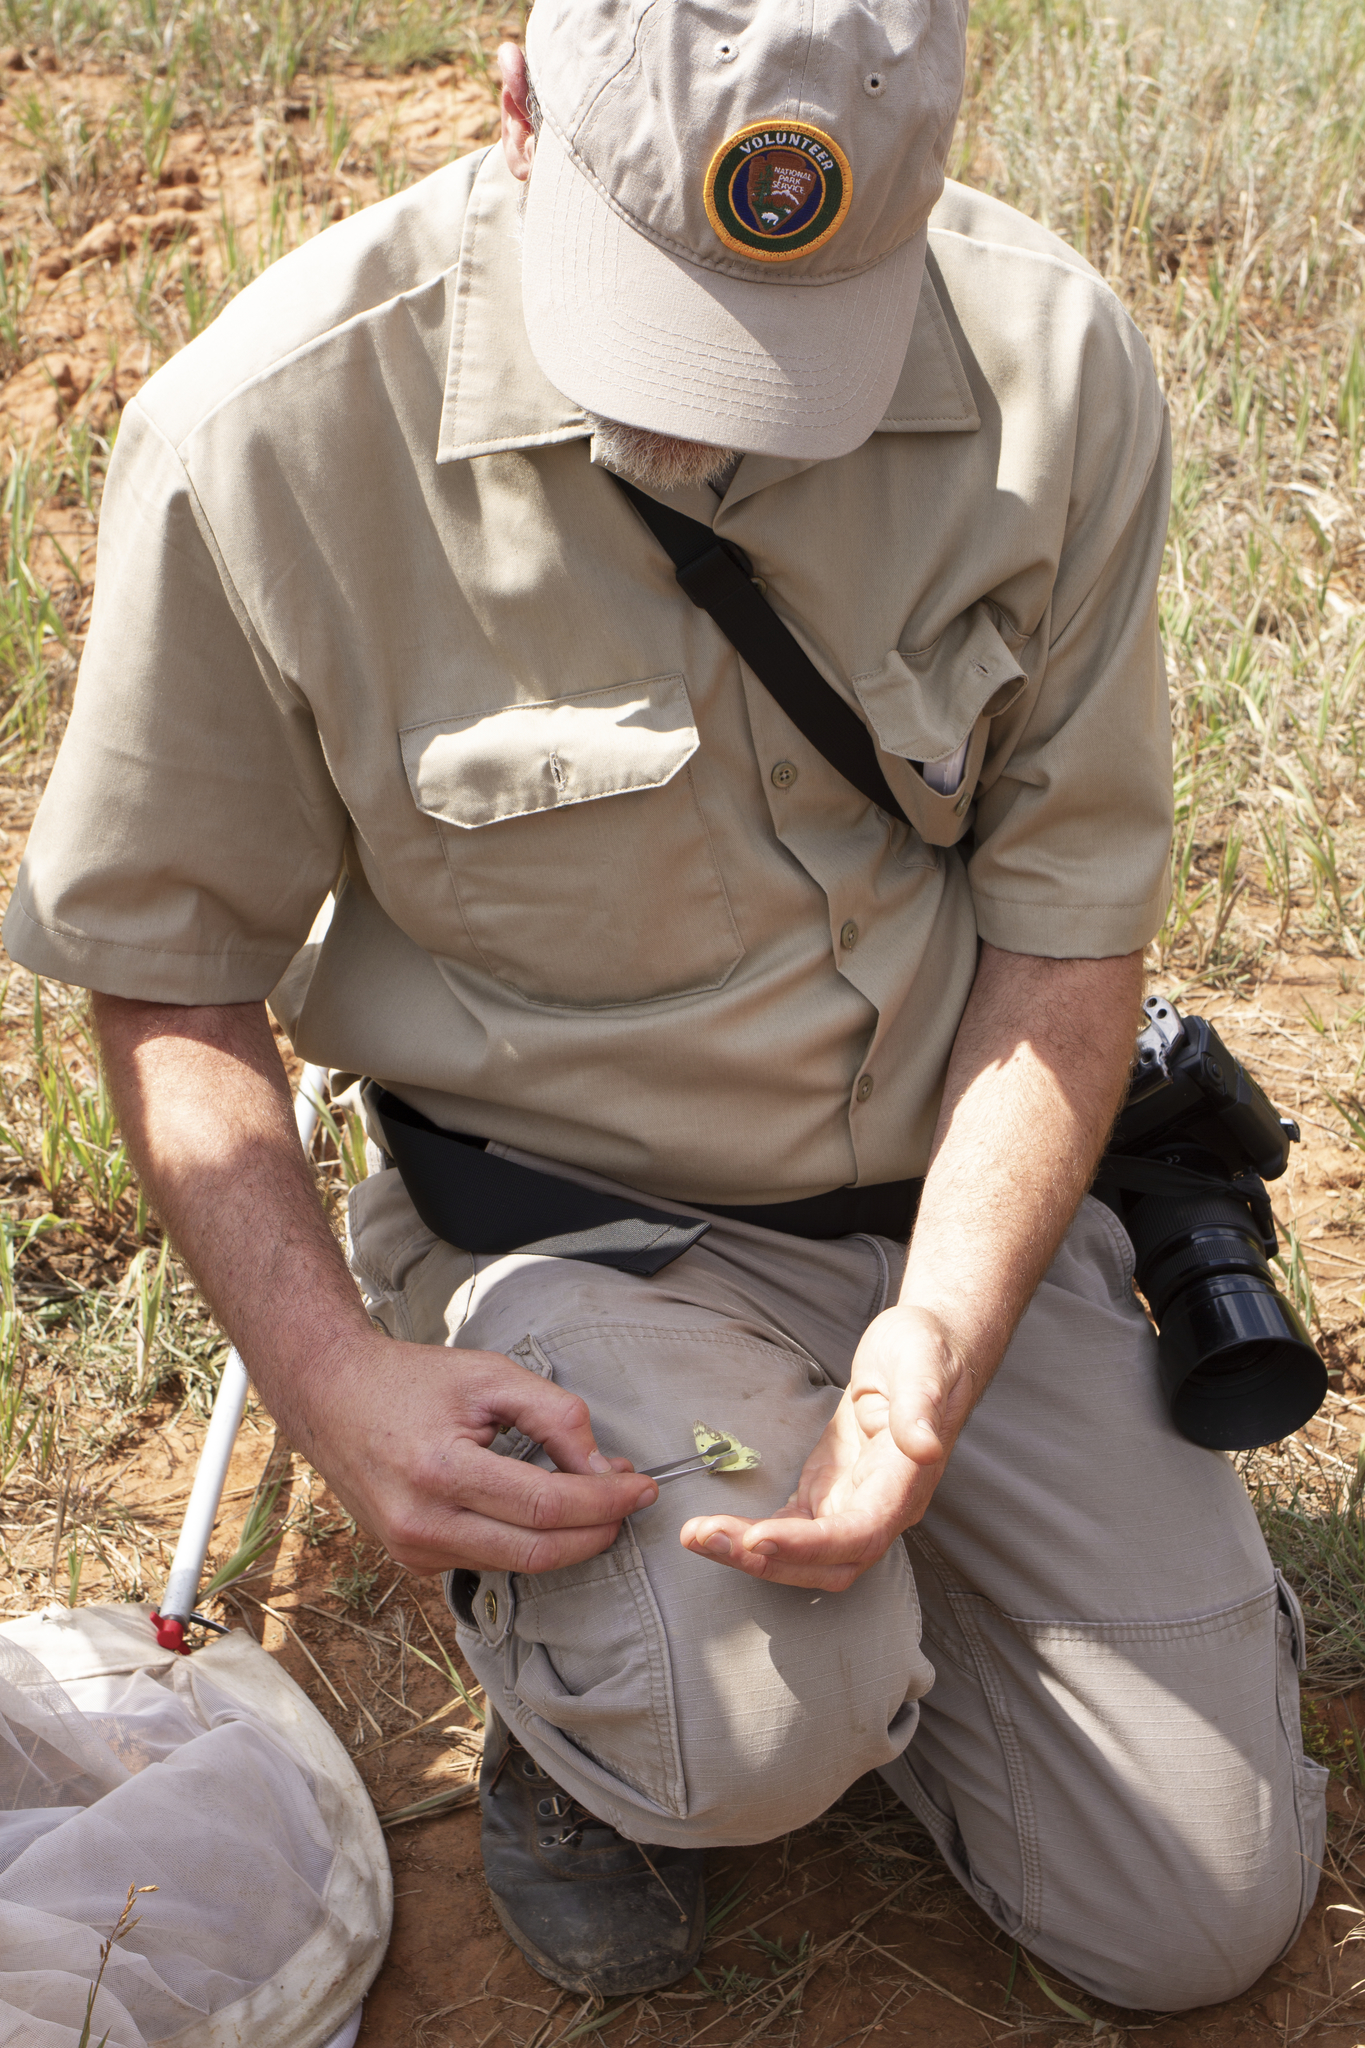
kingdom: Animalia
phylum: Arthropoda
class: Insecta
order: Lepidoptera
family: Pieridae
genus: Colias
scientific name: Colias philodice
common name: Clouded sulphur
